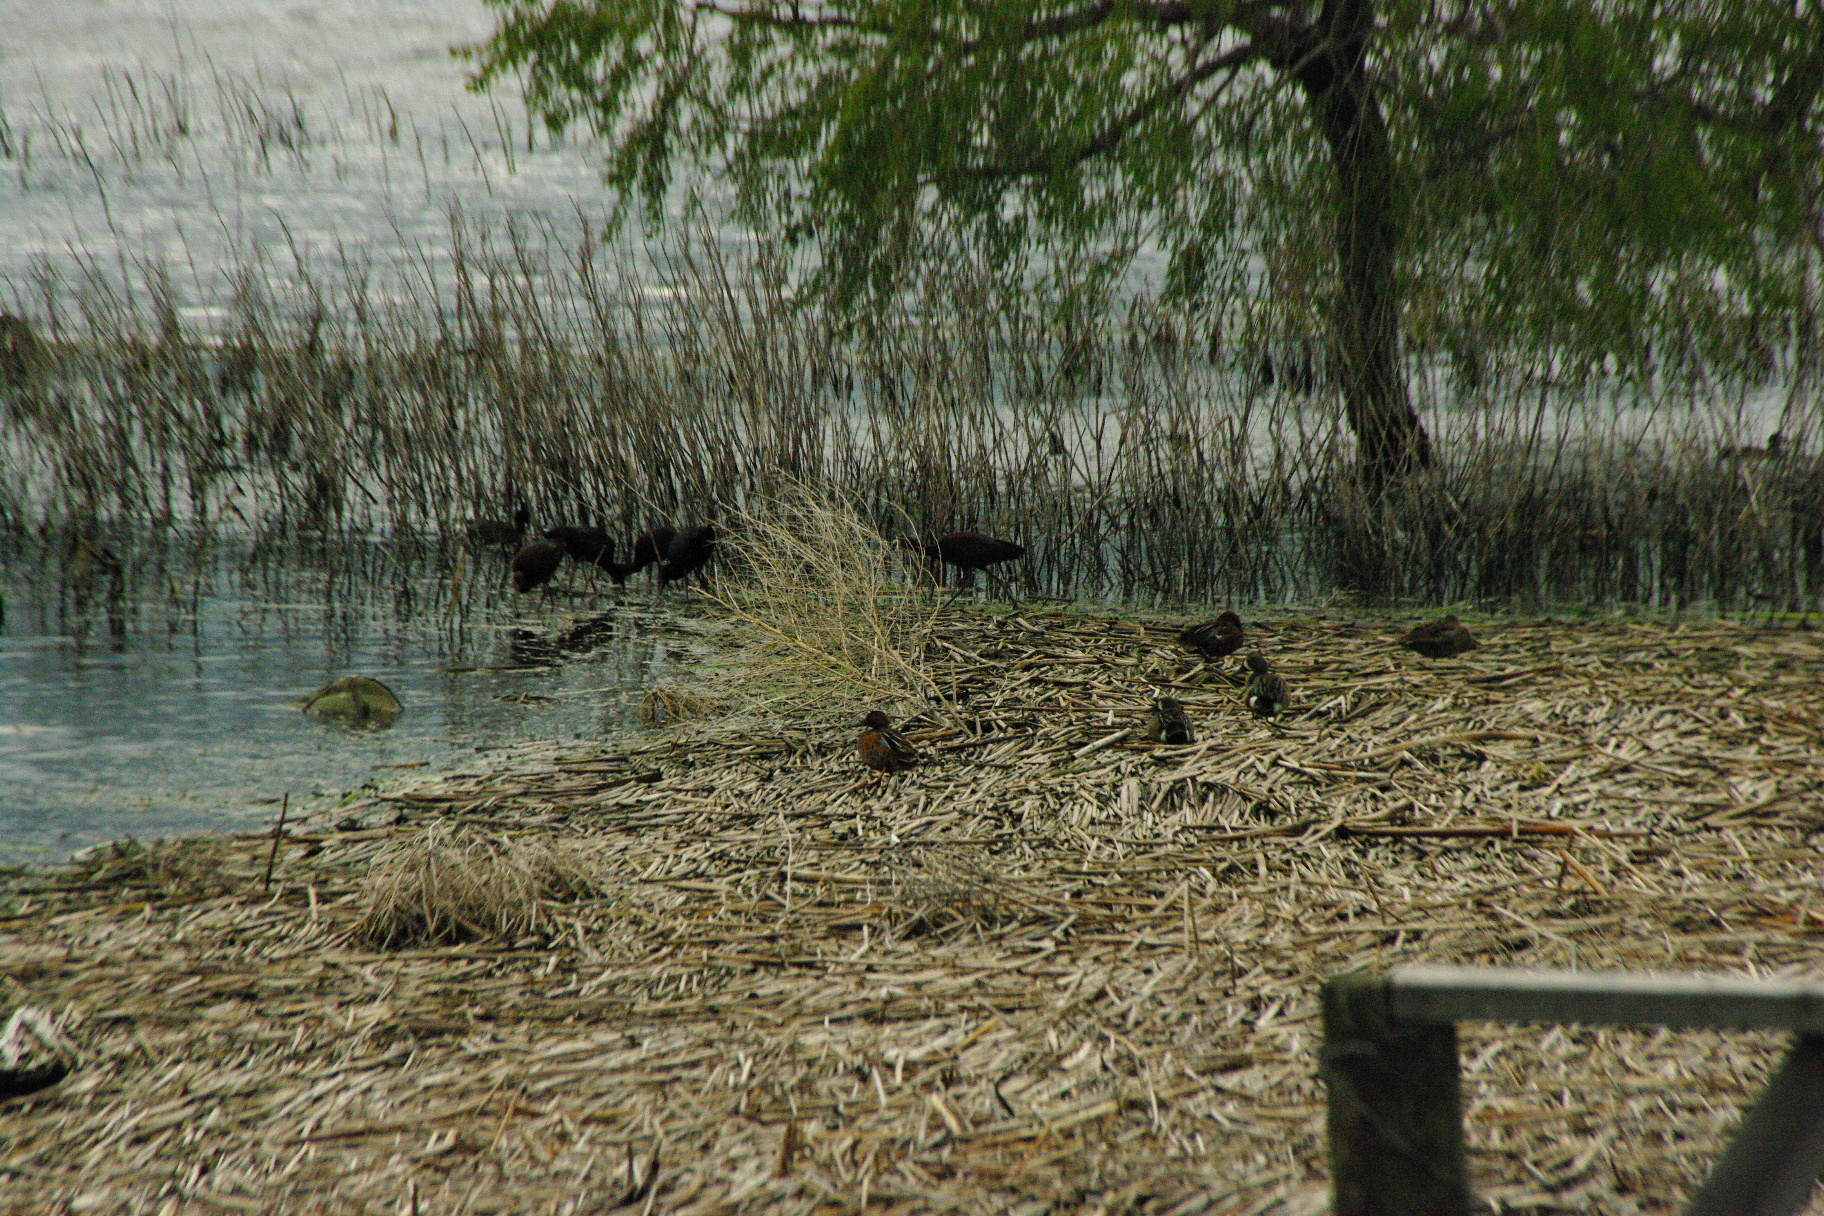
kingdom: Animalia
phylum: Chordata
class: Aves
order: Pelecaniformes
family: Threskiornithidae
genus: Plegadis
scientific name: Plegadis chihi
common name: White-faced ibis
